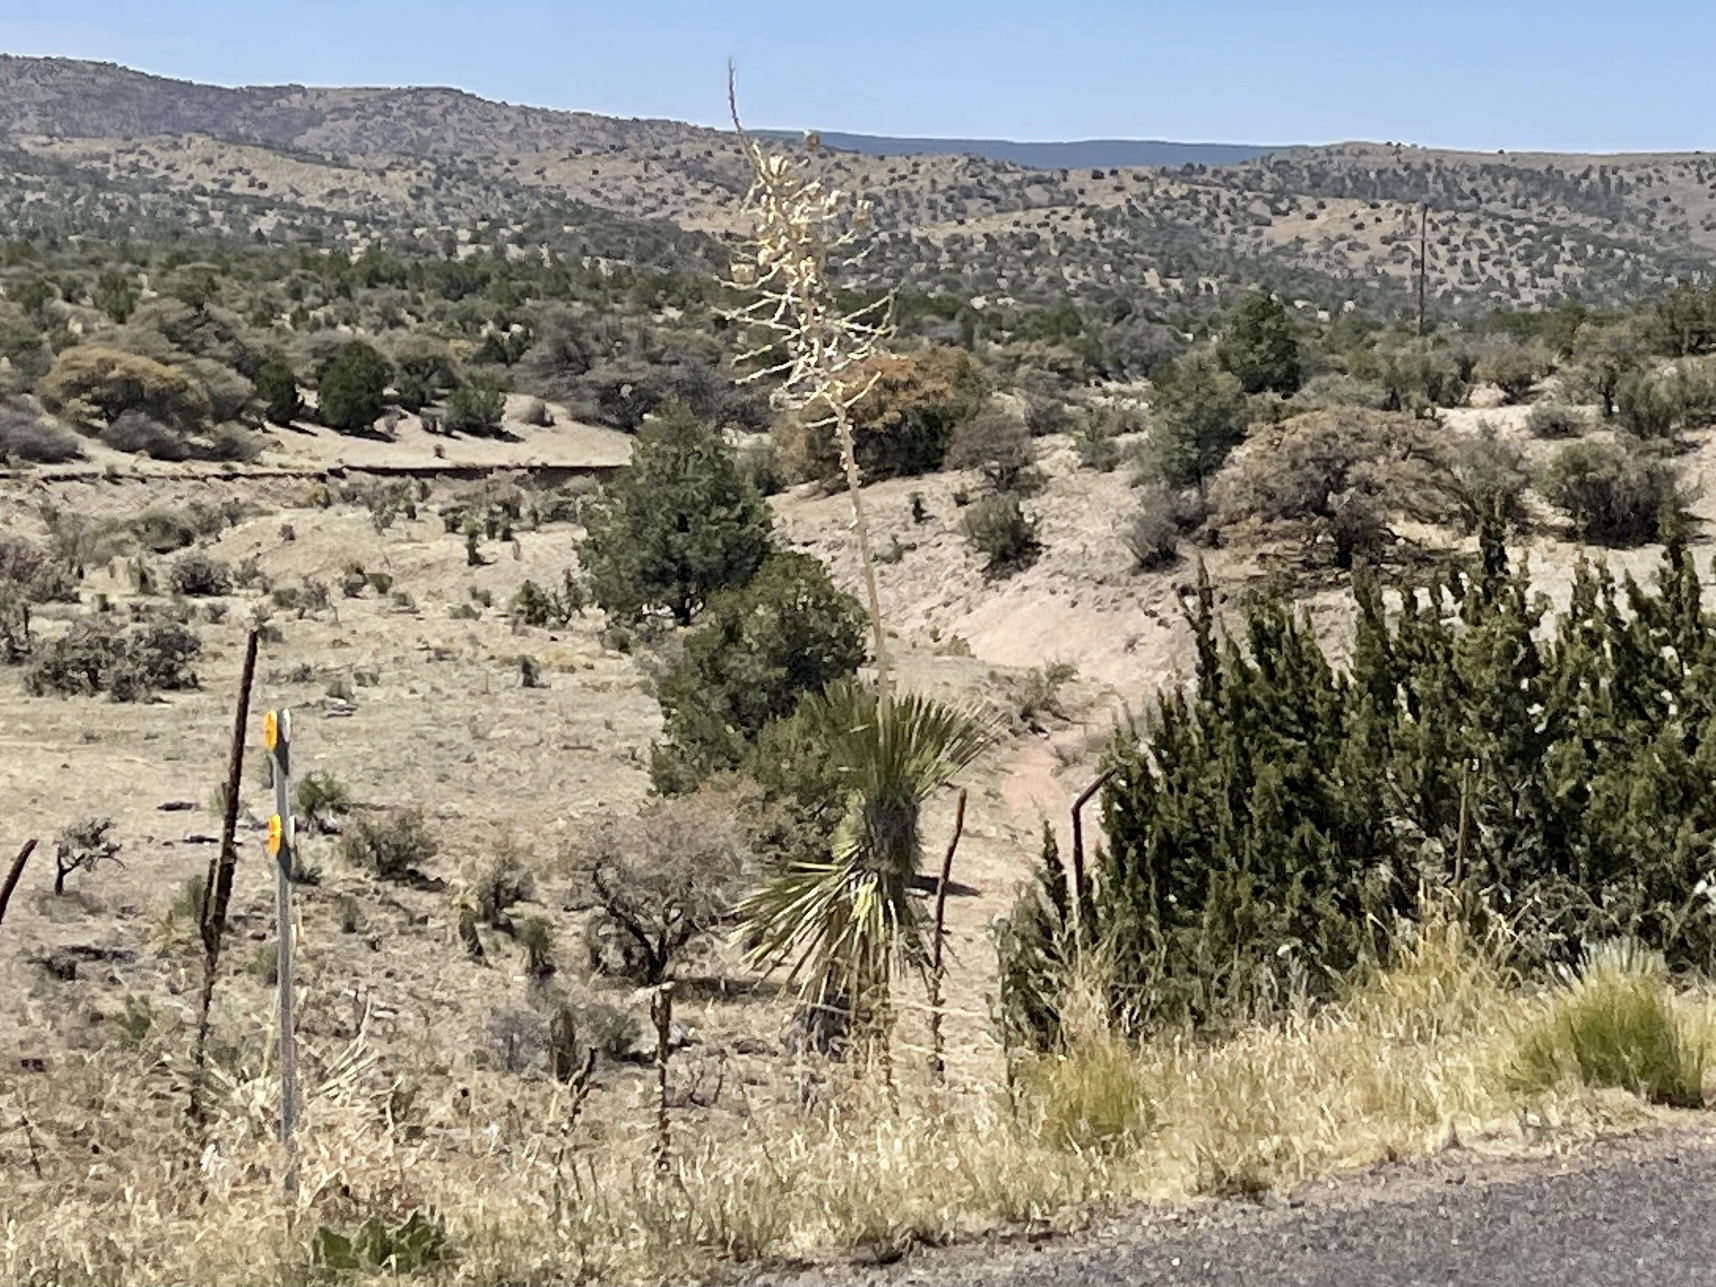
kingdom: Plantae
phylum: Tracheophyta
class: Liliopsida
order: Asparagales
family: Asparagaceae
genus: Yucca
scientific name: Yucca elata
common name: Palmella
